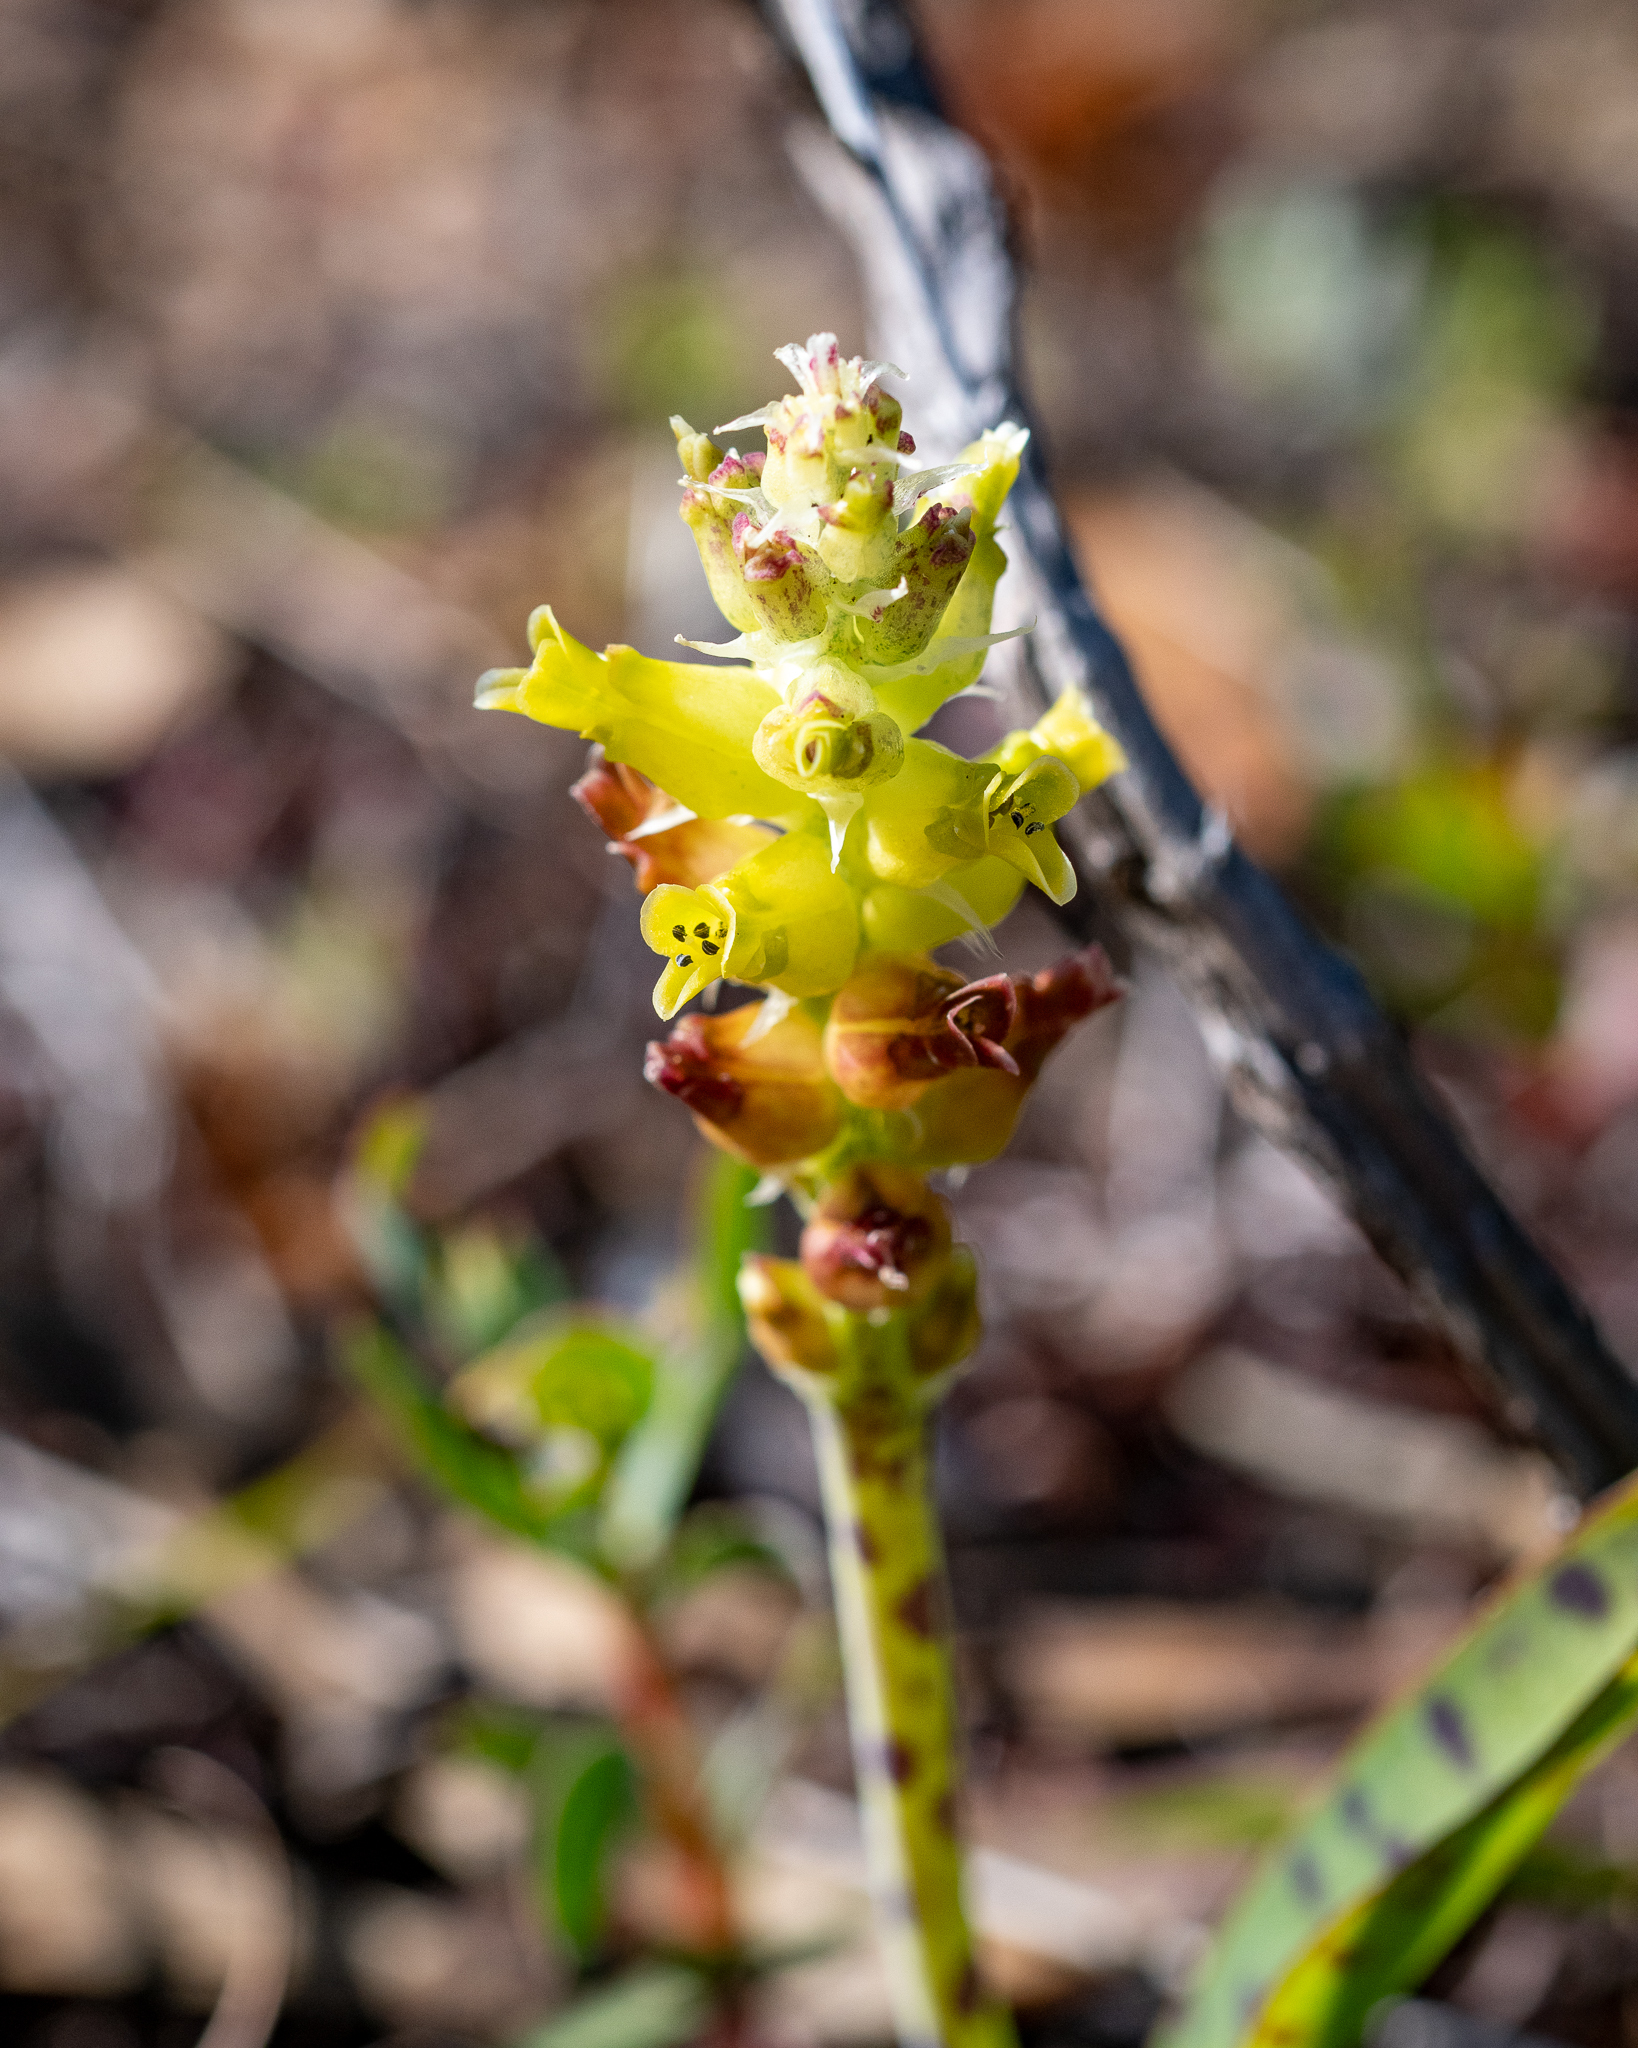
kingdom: Plantae
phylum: Tracheophyta
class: Liliopsida
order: Asparagales
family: Asparagaceae
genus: Lachenalia
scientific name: Lachenalia lutea
